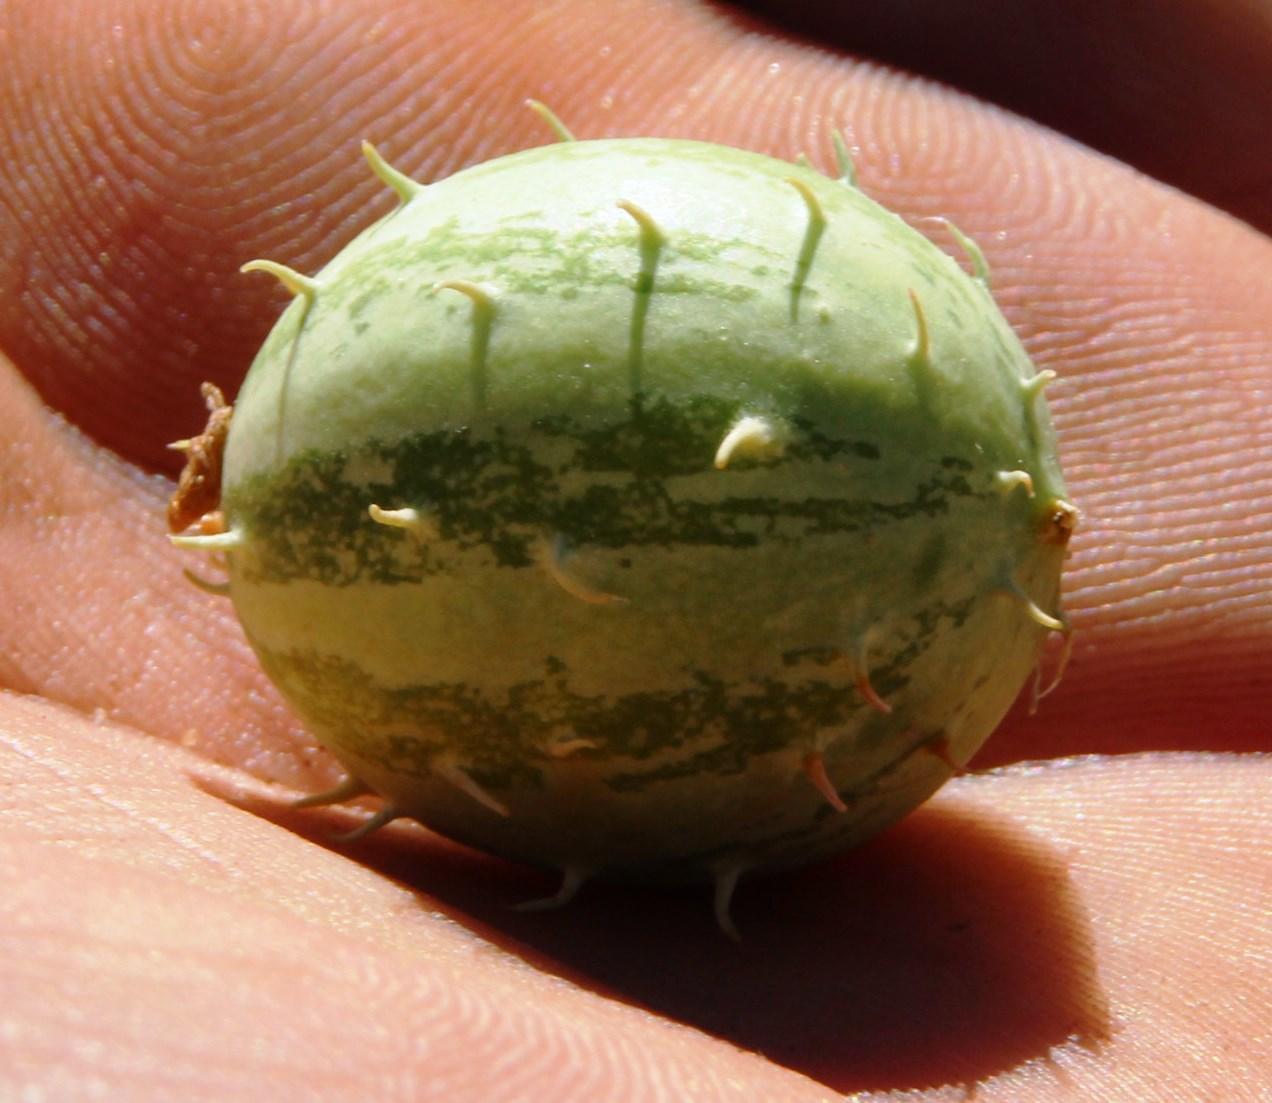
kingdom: Plantae
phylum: Tracheophyta
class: Magnoliopsida
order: Cucurbitales
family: Cucurbitaceae
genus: Cucumis
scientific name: Cucumis myriocarpus
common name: Gooseberry cucumber
